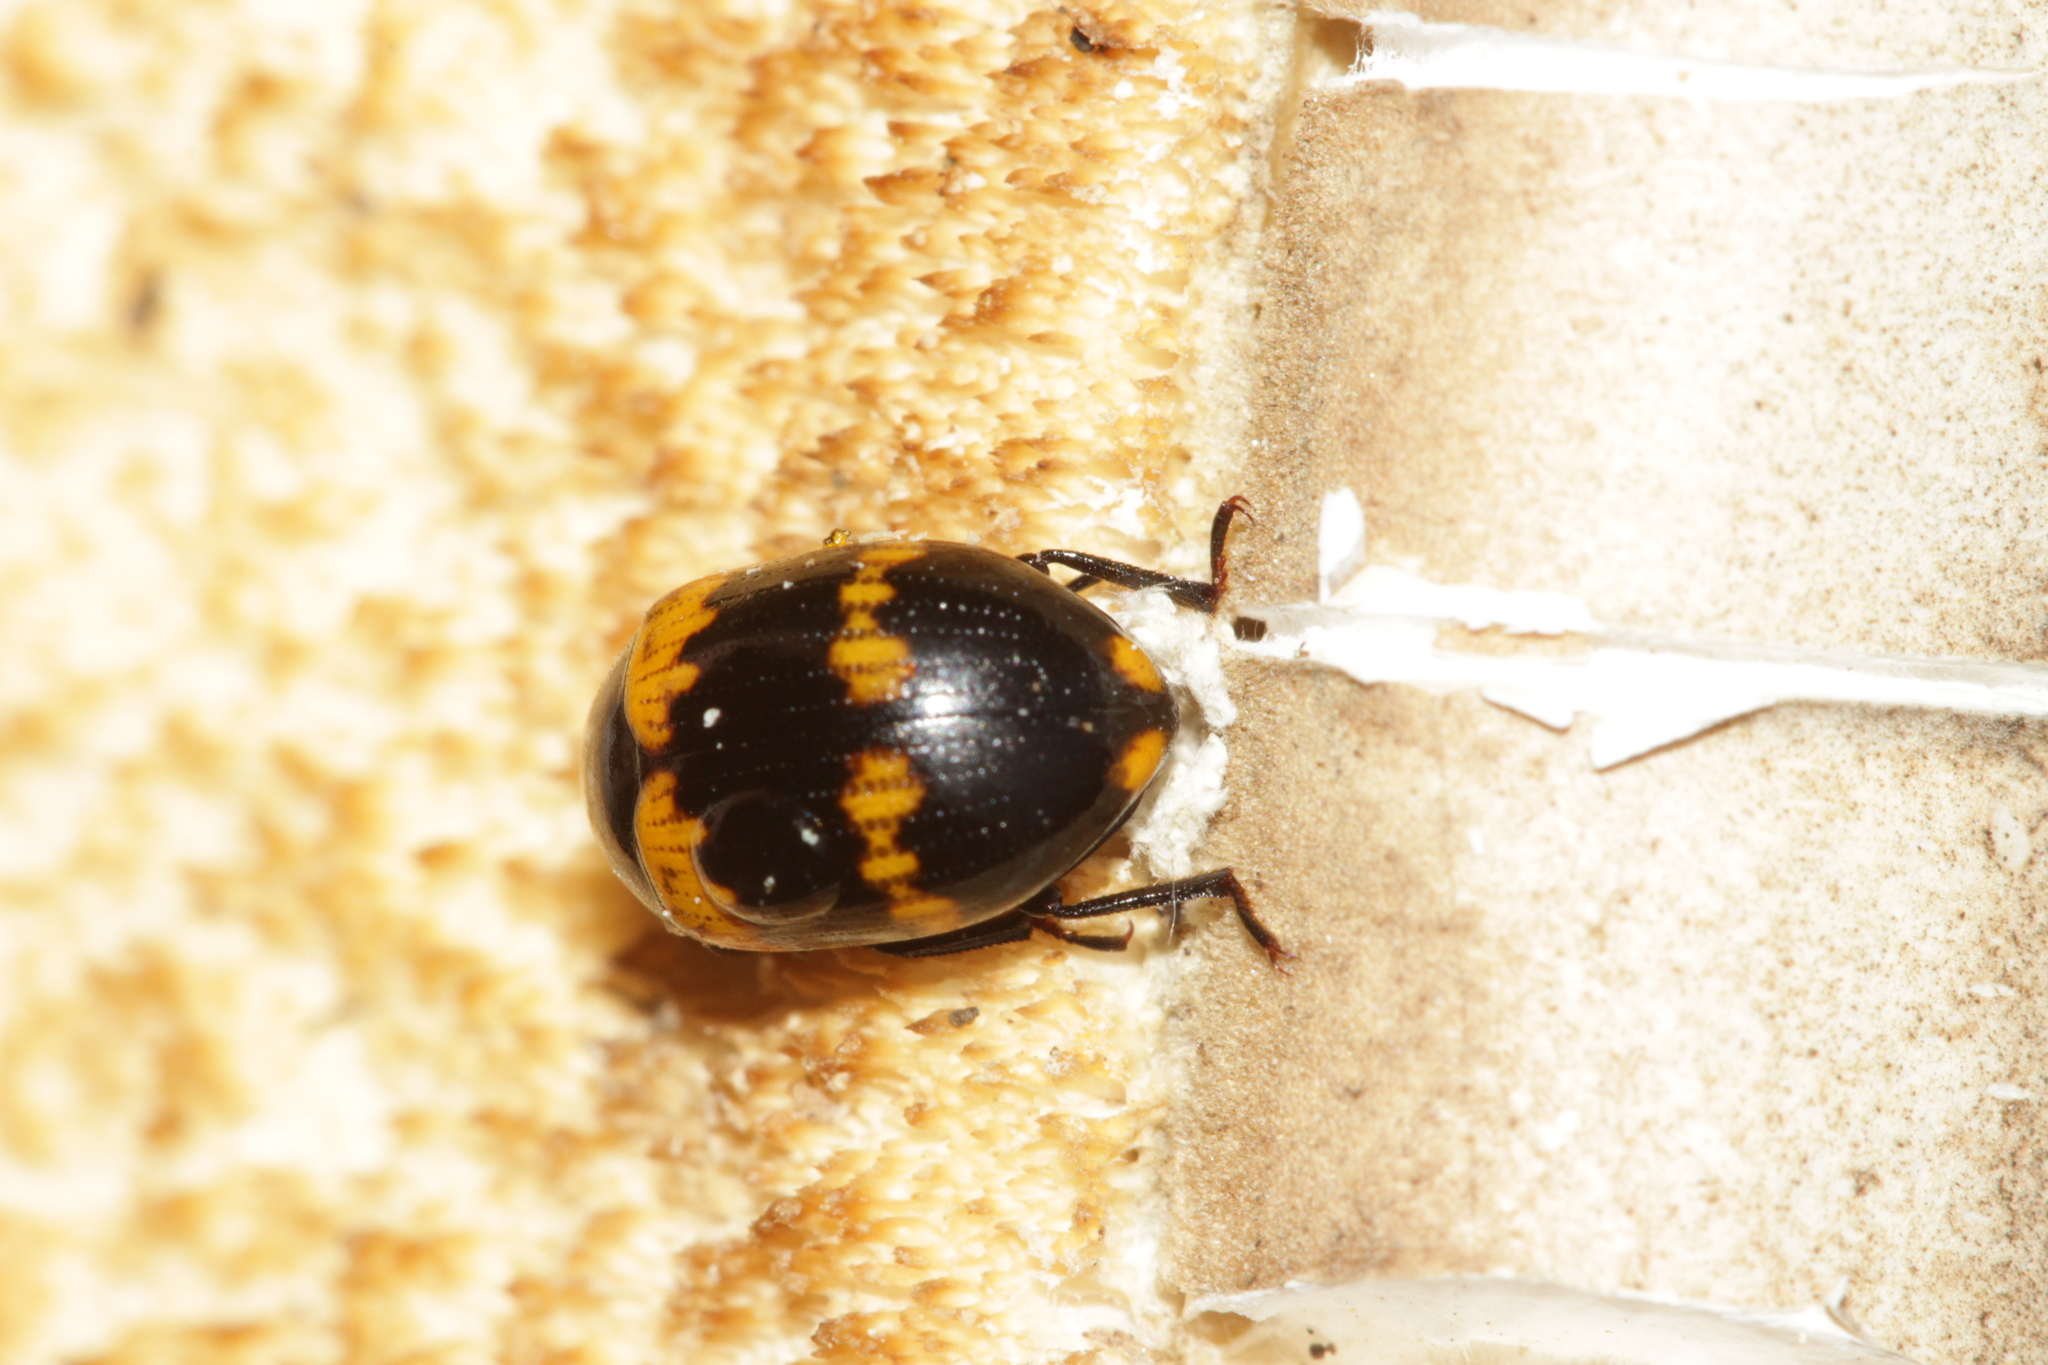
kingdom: Animalia
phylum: Arthropoda
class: Insecta
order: Coleoptera
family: Tenebrionidae
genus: Diaperis
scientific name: Diaperis boleti
